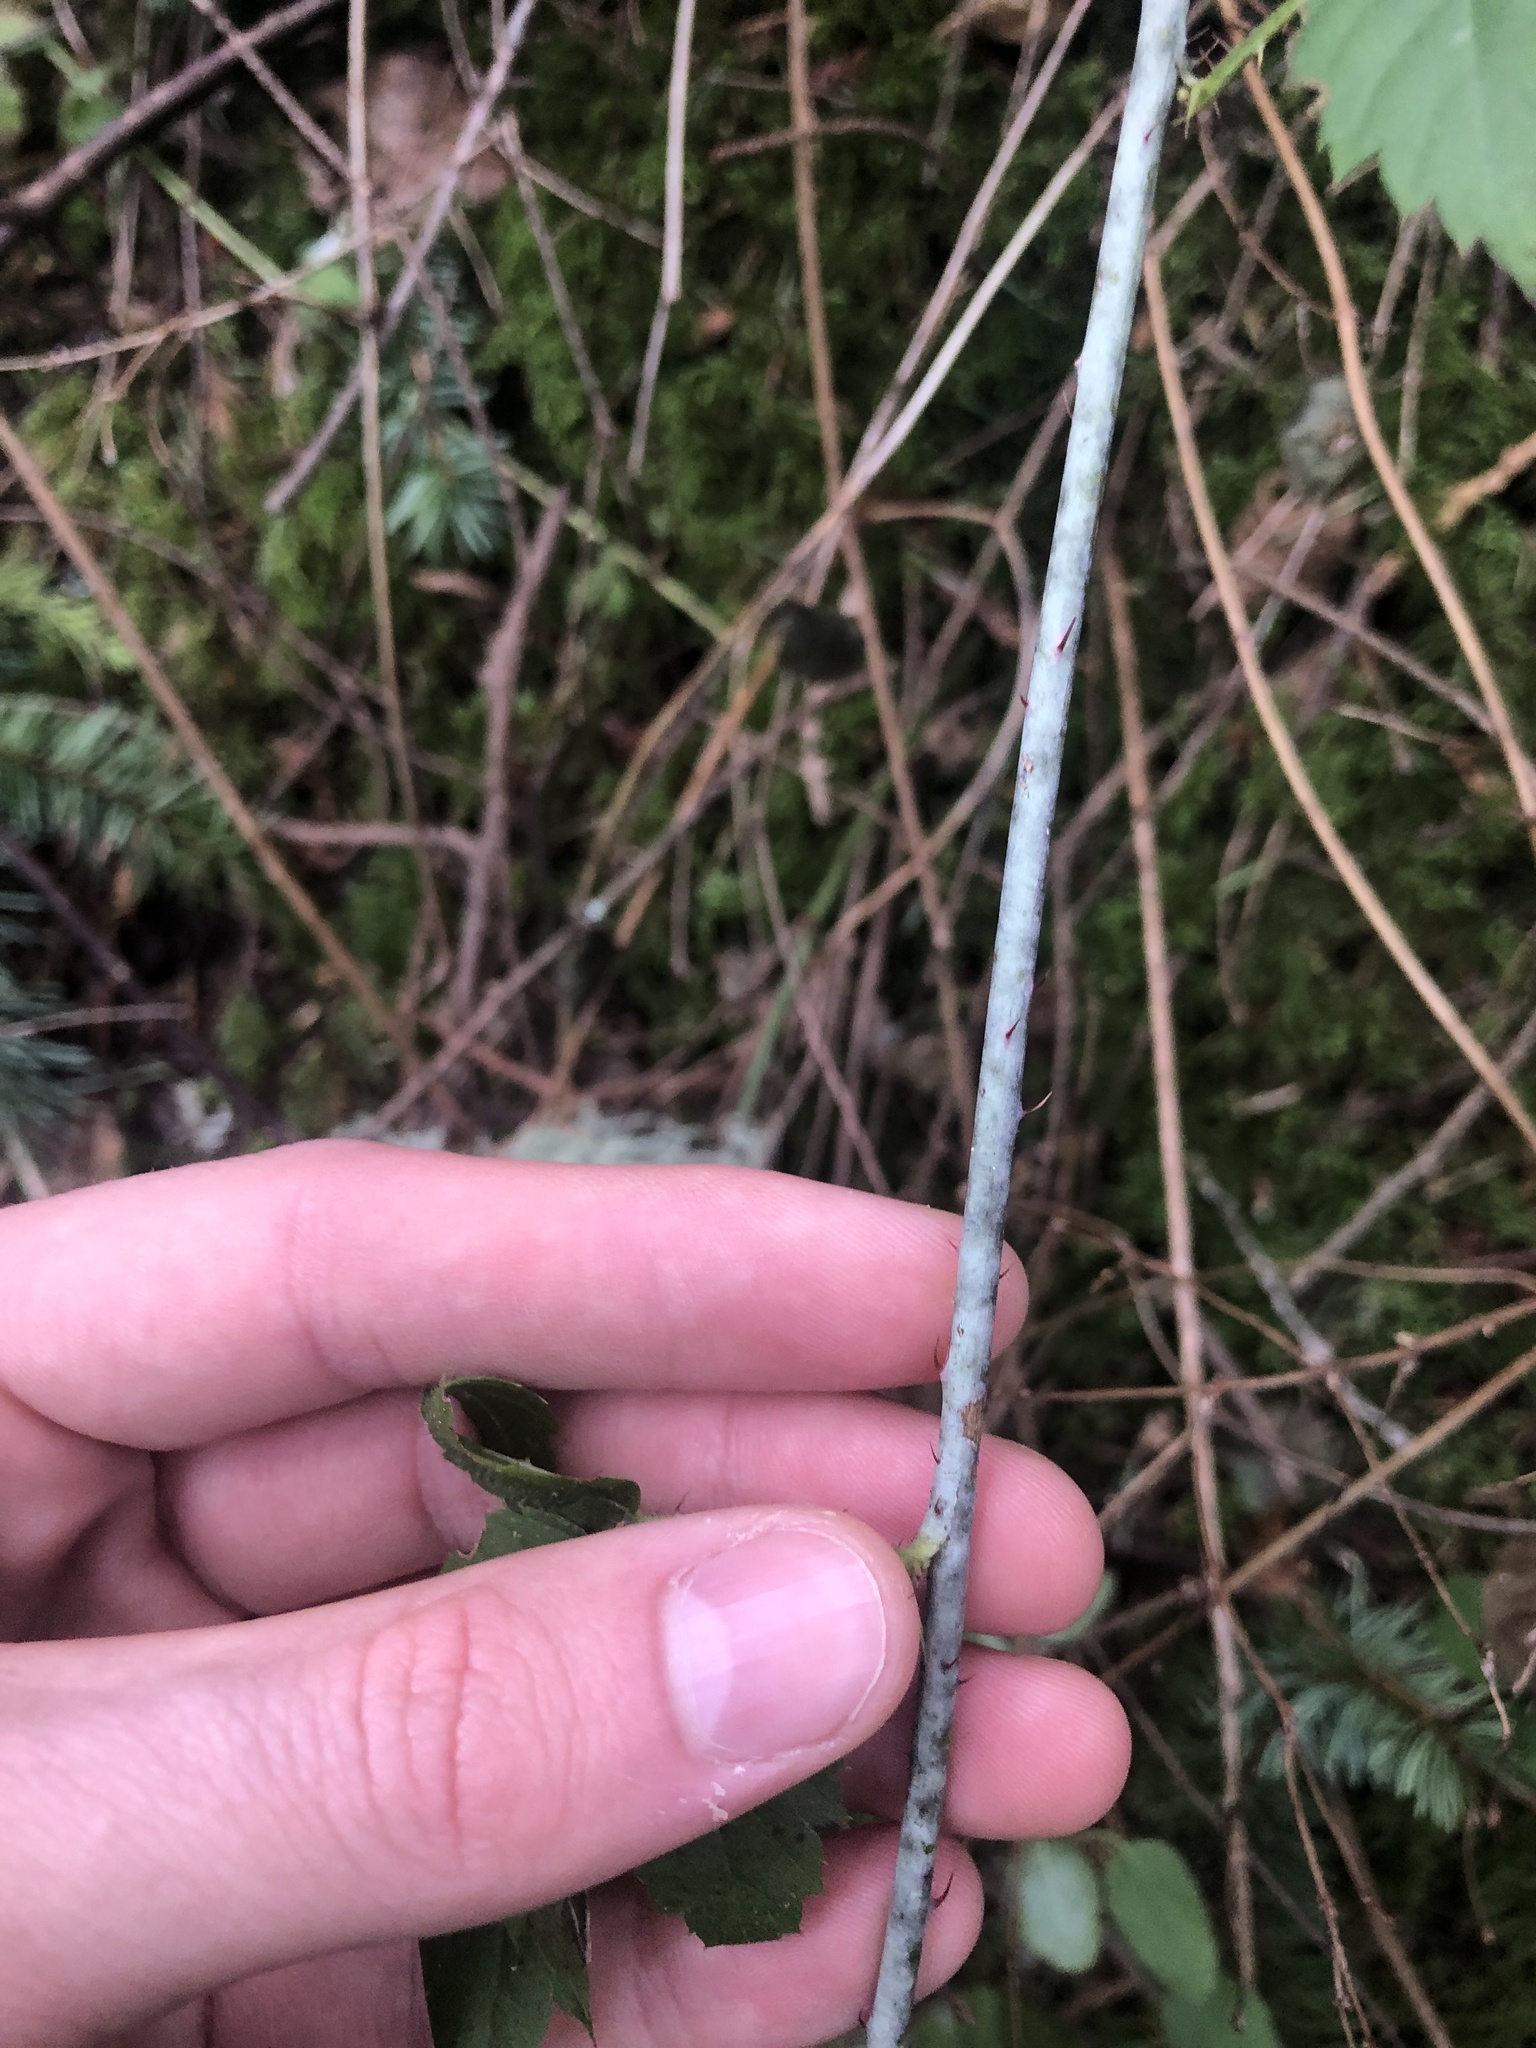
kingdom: Plantae
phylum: Tracheophyta
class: Magnoliopsida
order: Rosales
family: Rosaceae
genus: Rubus
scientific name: Rubus ursinus
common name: Pacific blackberry
